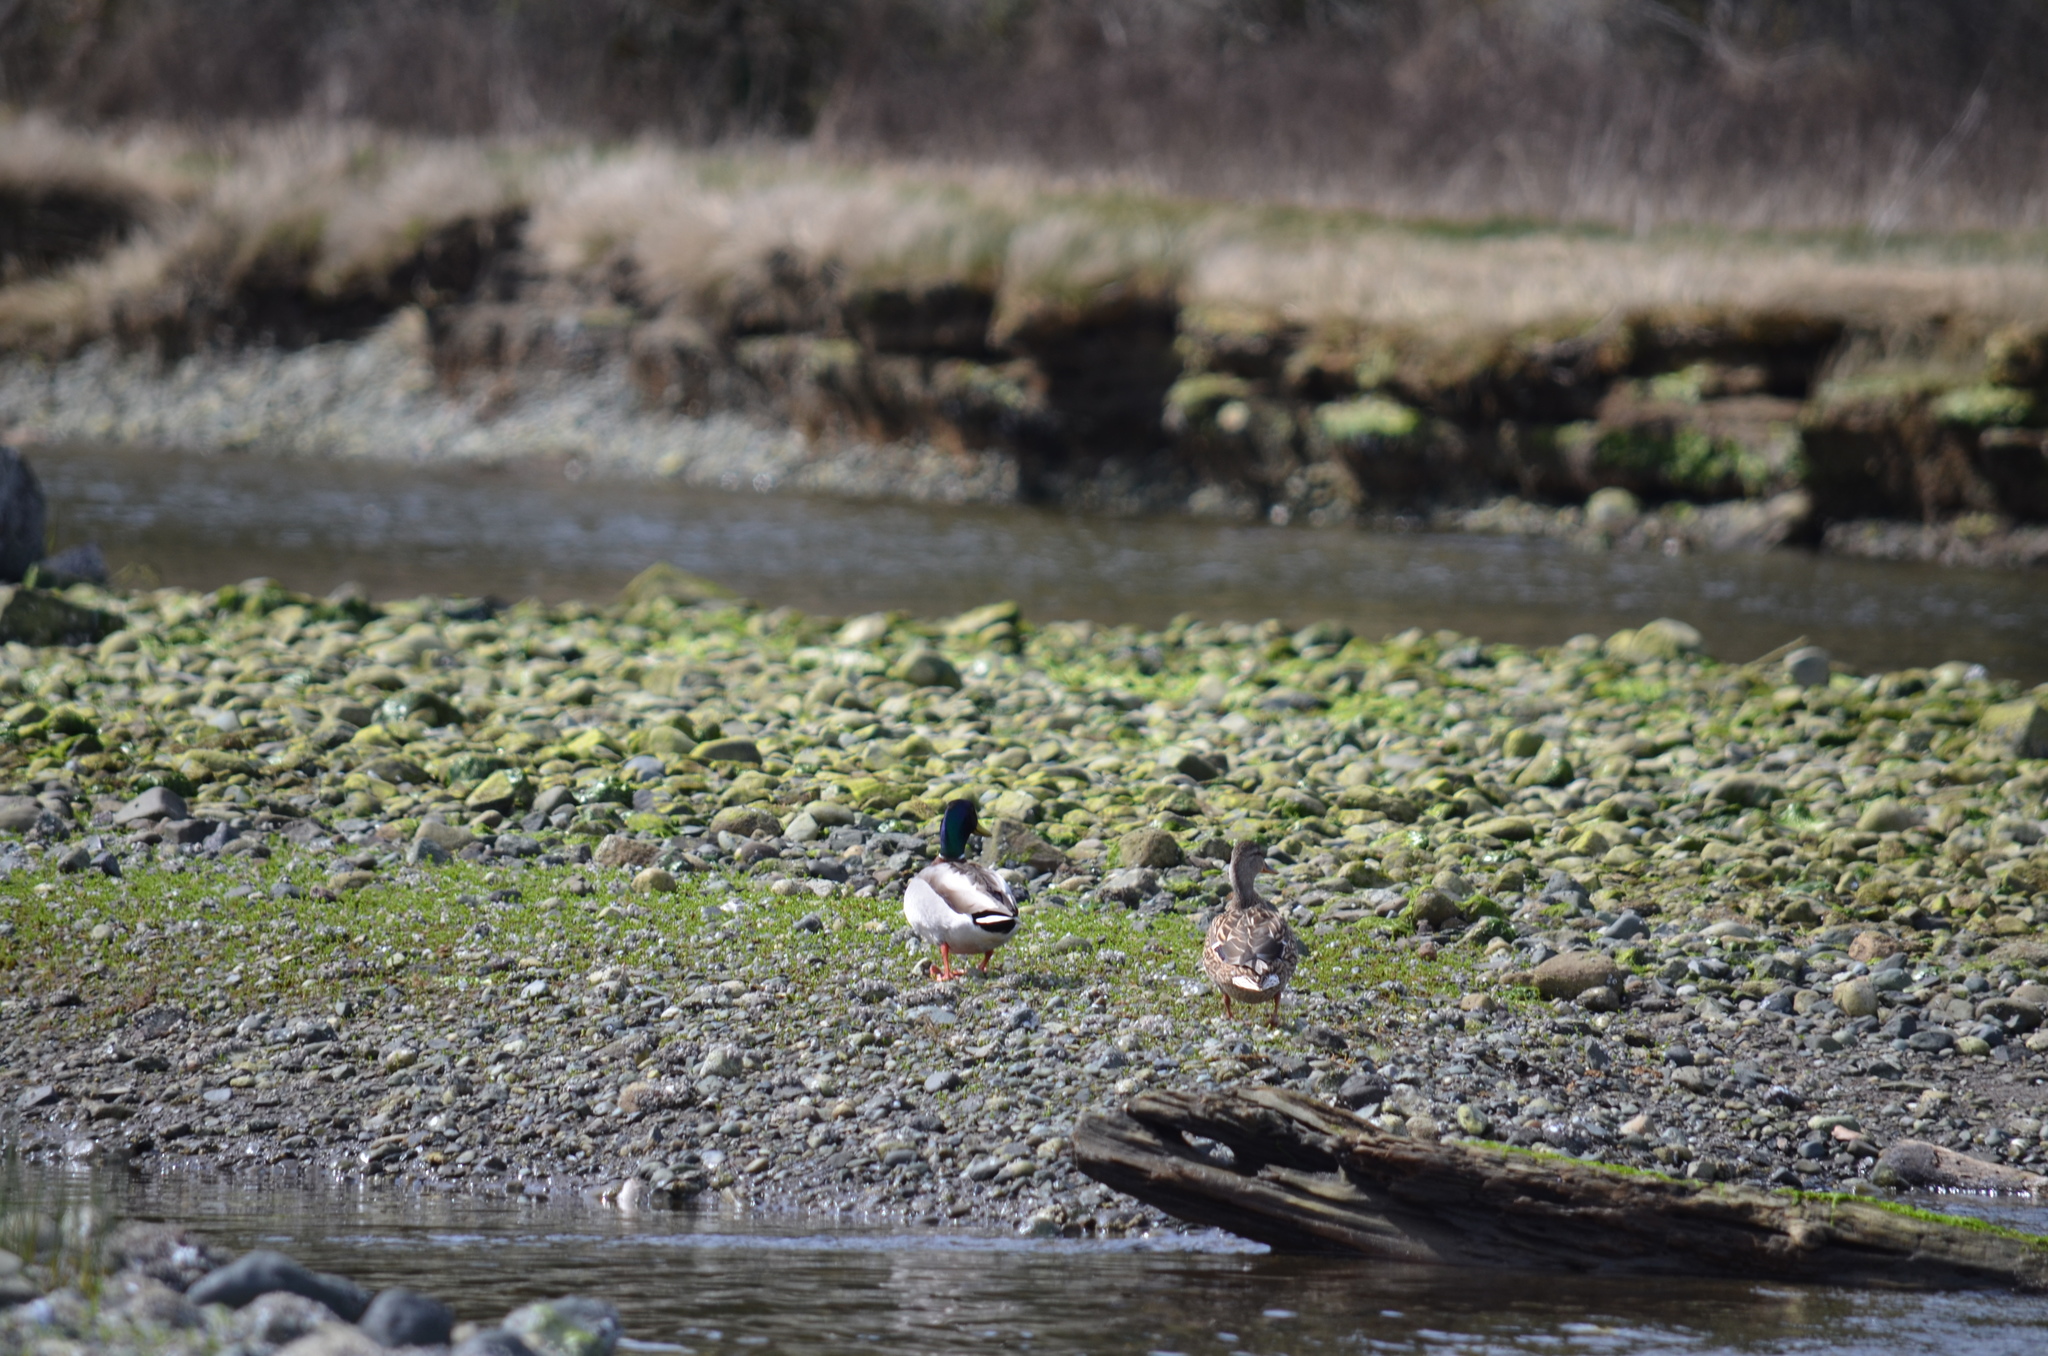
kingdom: Animalia
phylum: Chordata
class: Aves
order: Anseriformes
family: Anatidae
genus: Anas
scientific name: Anas platyrhynchos
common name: Mallard
